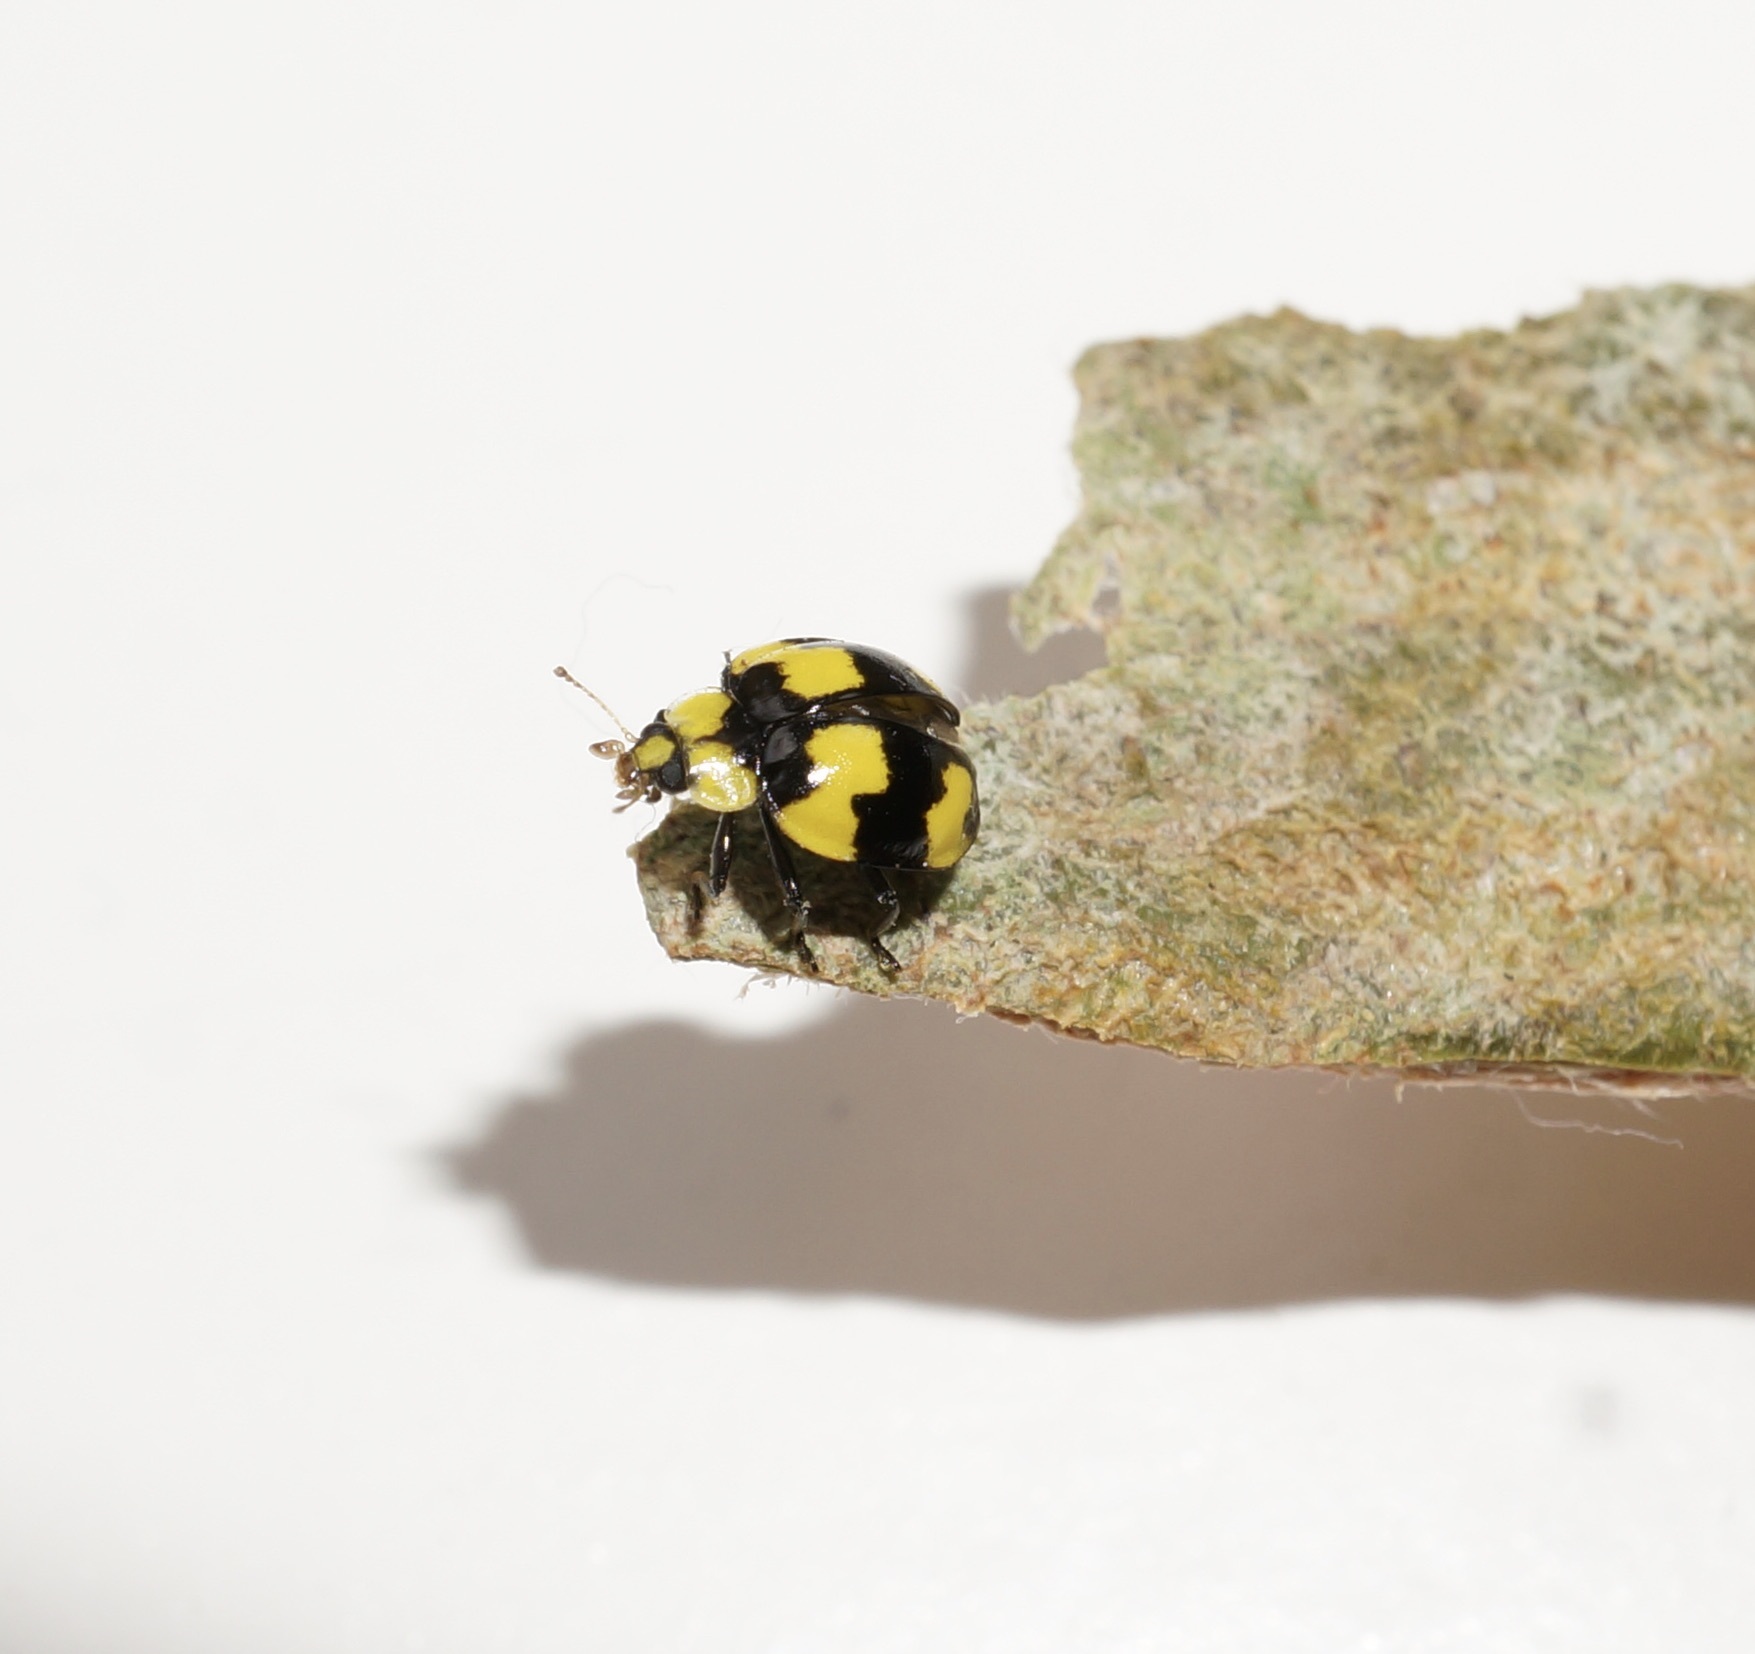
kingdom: Animalia
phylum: Arthropoda
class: Insecta
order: Coleoptera
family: Coccinellidae
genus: Illeis
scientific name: Illeis galbula
